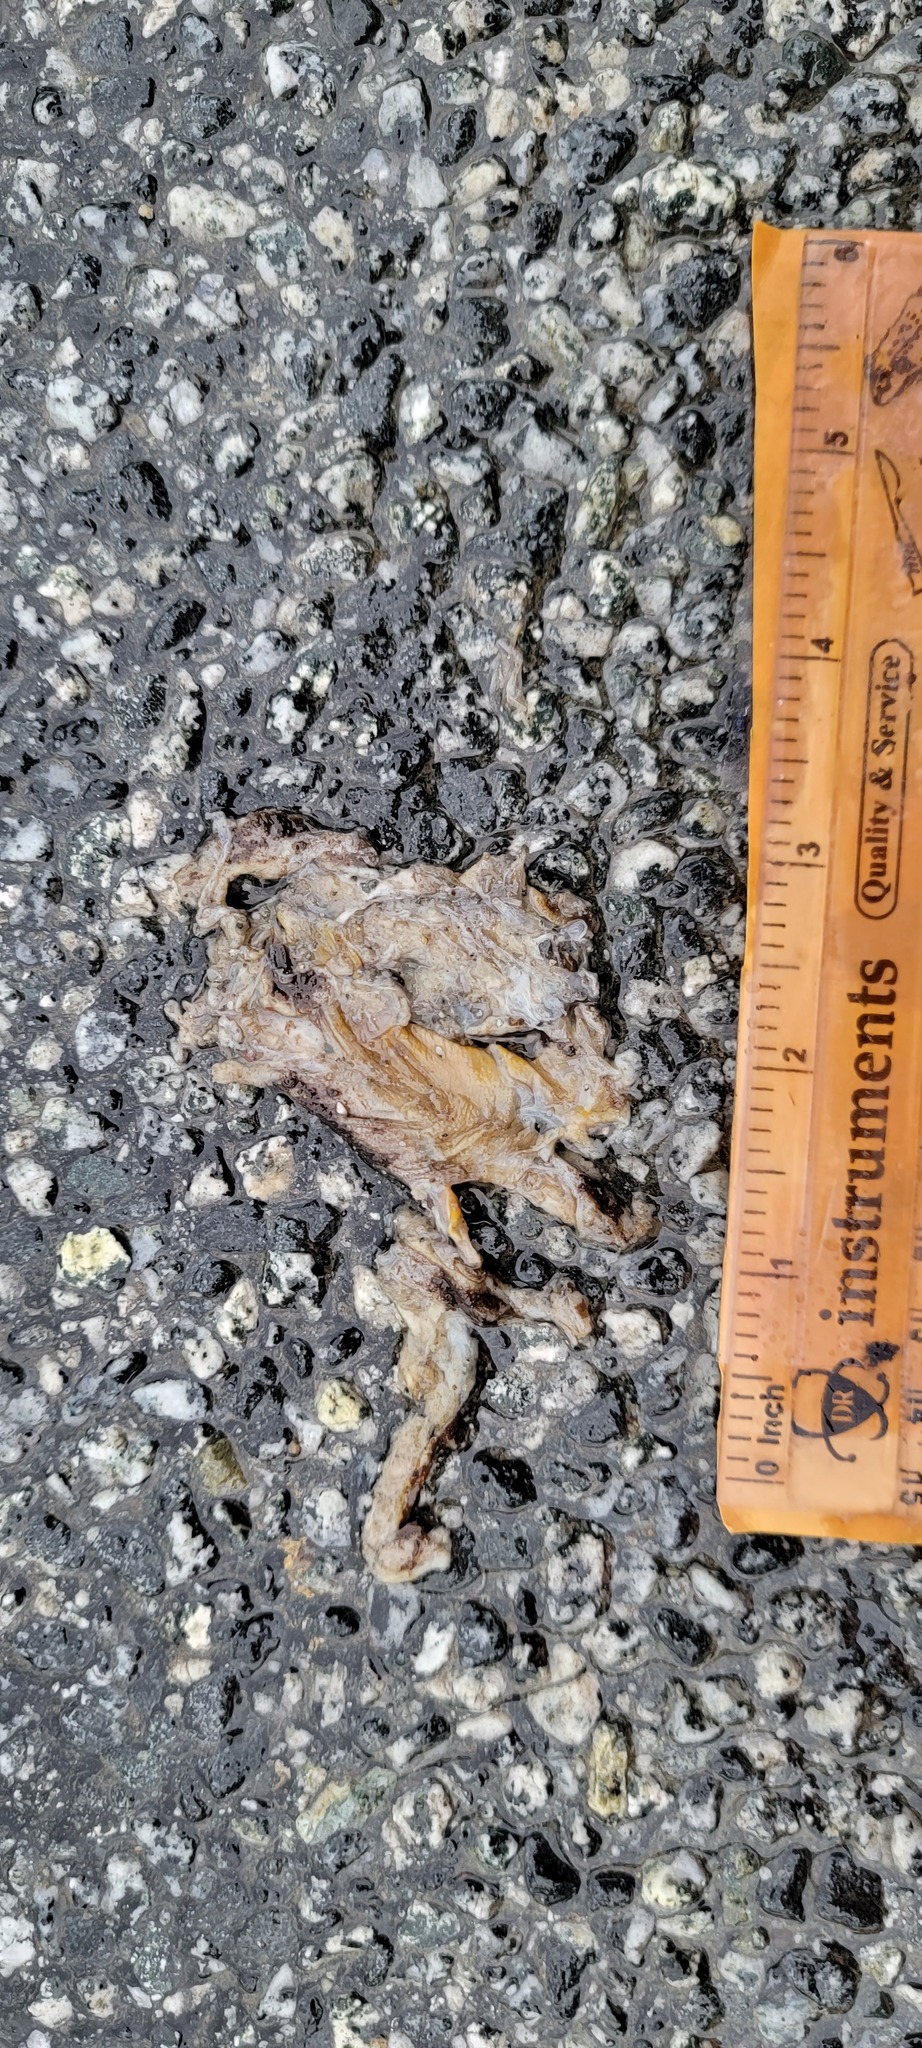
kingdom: Animalia
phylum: Chordata
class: Amphibia
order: Caudata
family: Salamandridae
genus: Taricha
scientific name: Taricha
